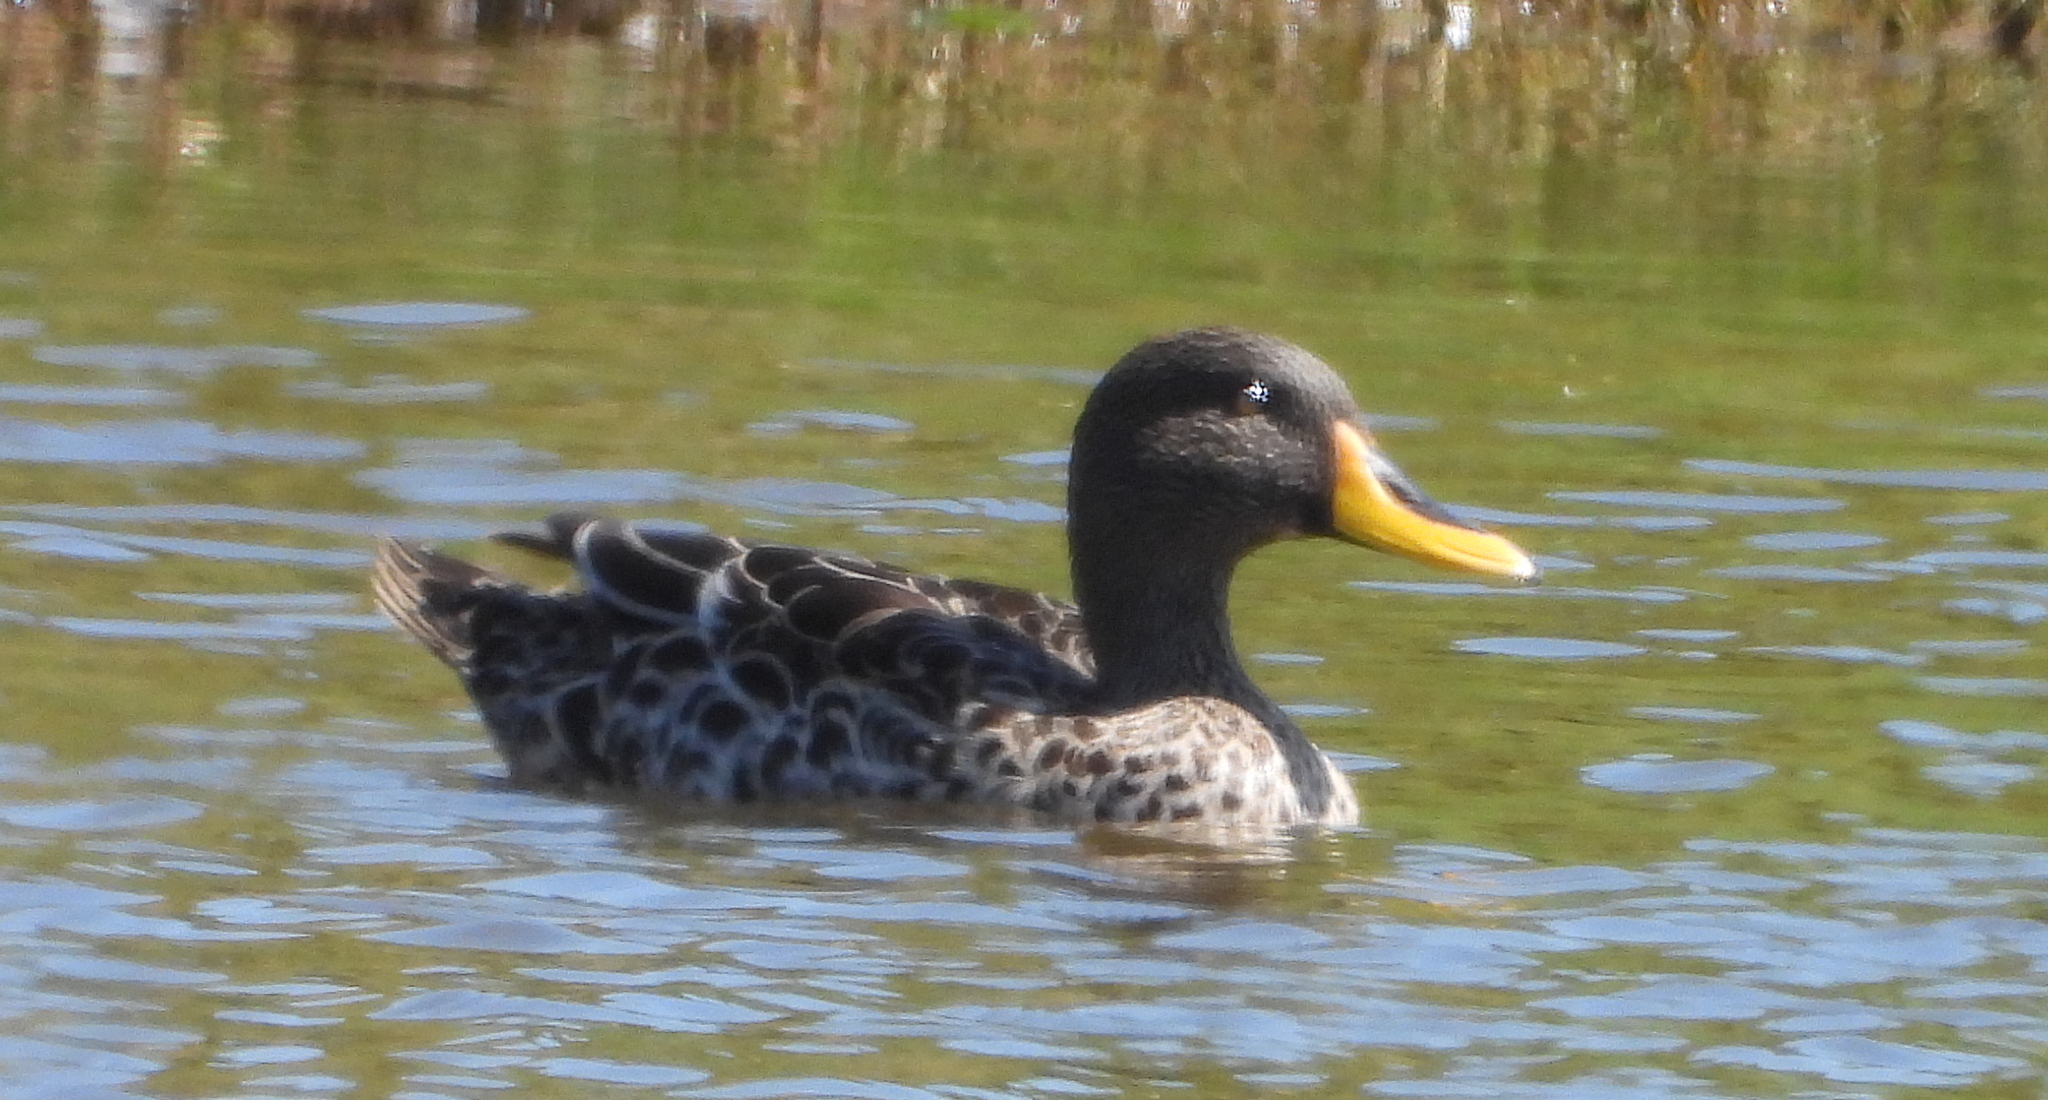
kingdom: Animalia
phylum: Chordata
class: Aves
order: Anseriformes
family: Anatidae
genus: Anas
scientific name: Anas undulata
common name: Yellow-billed duck
